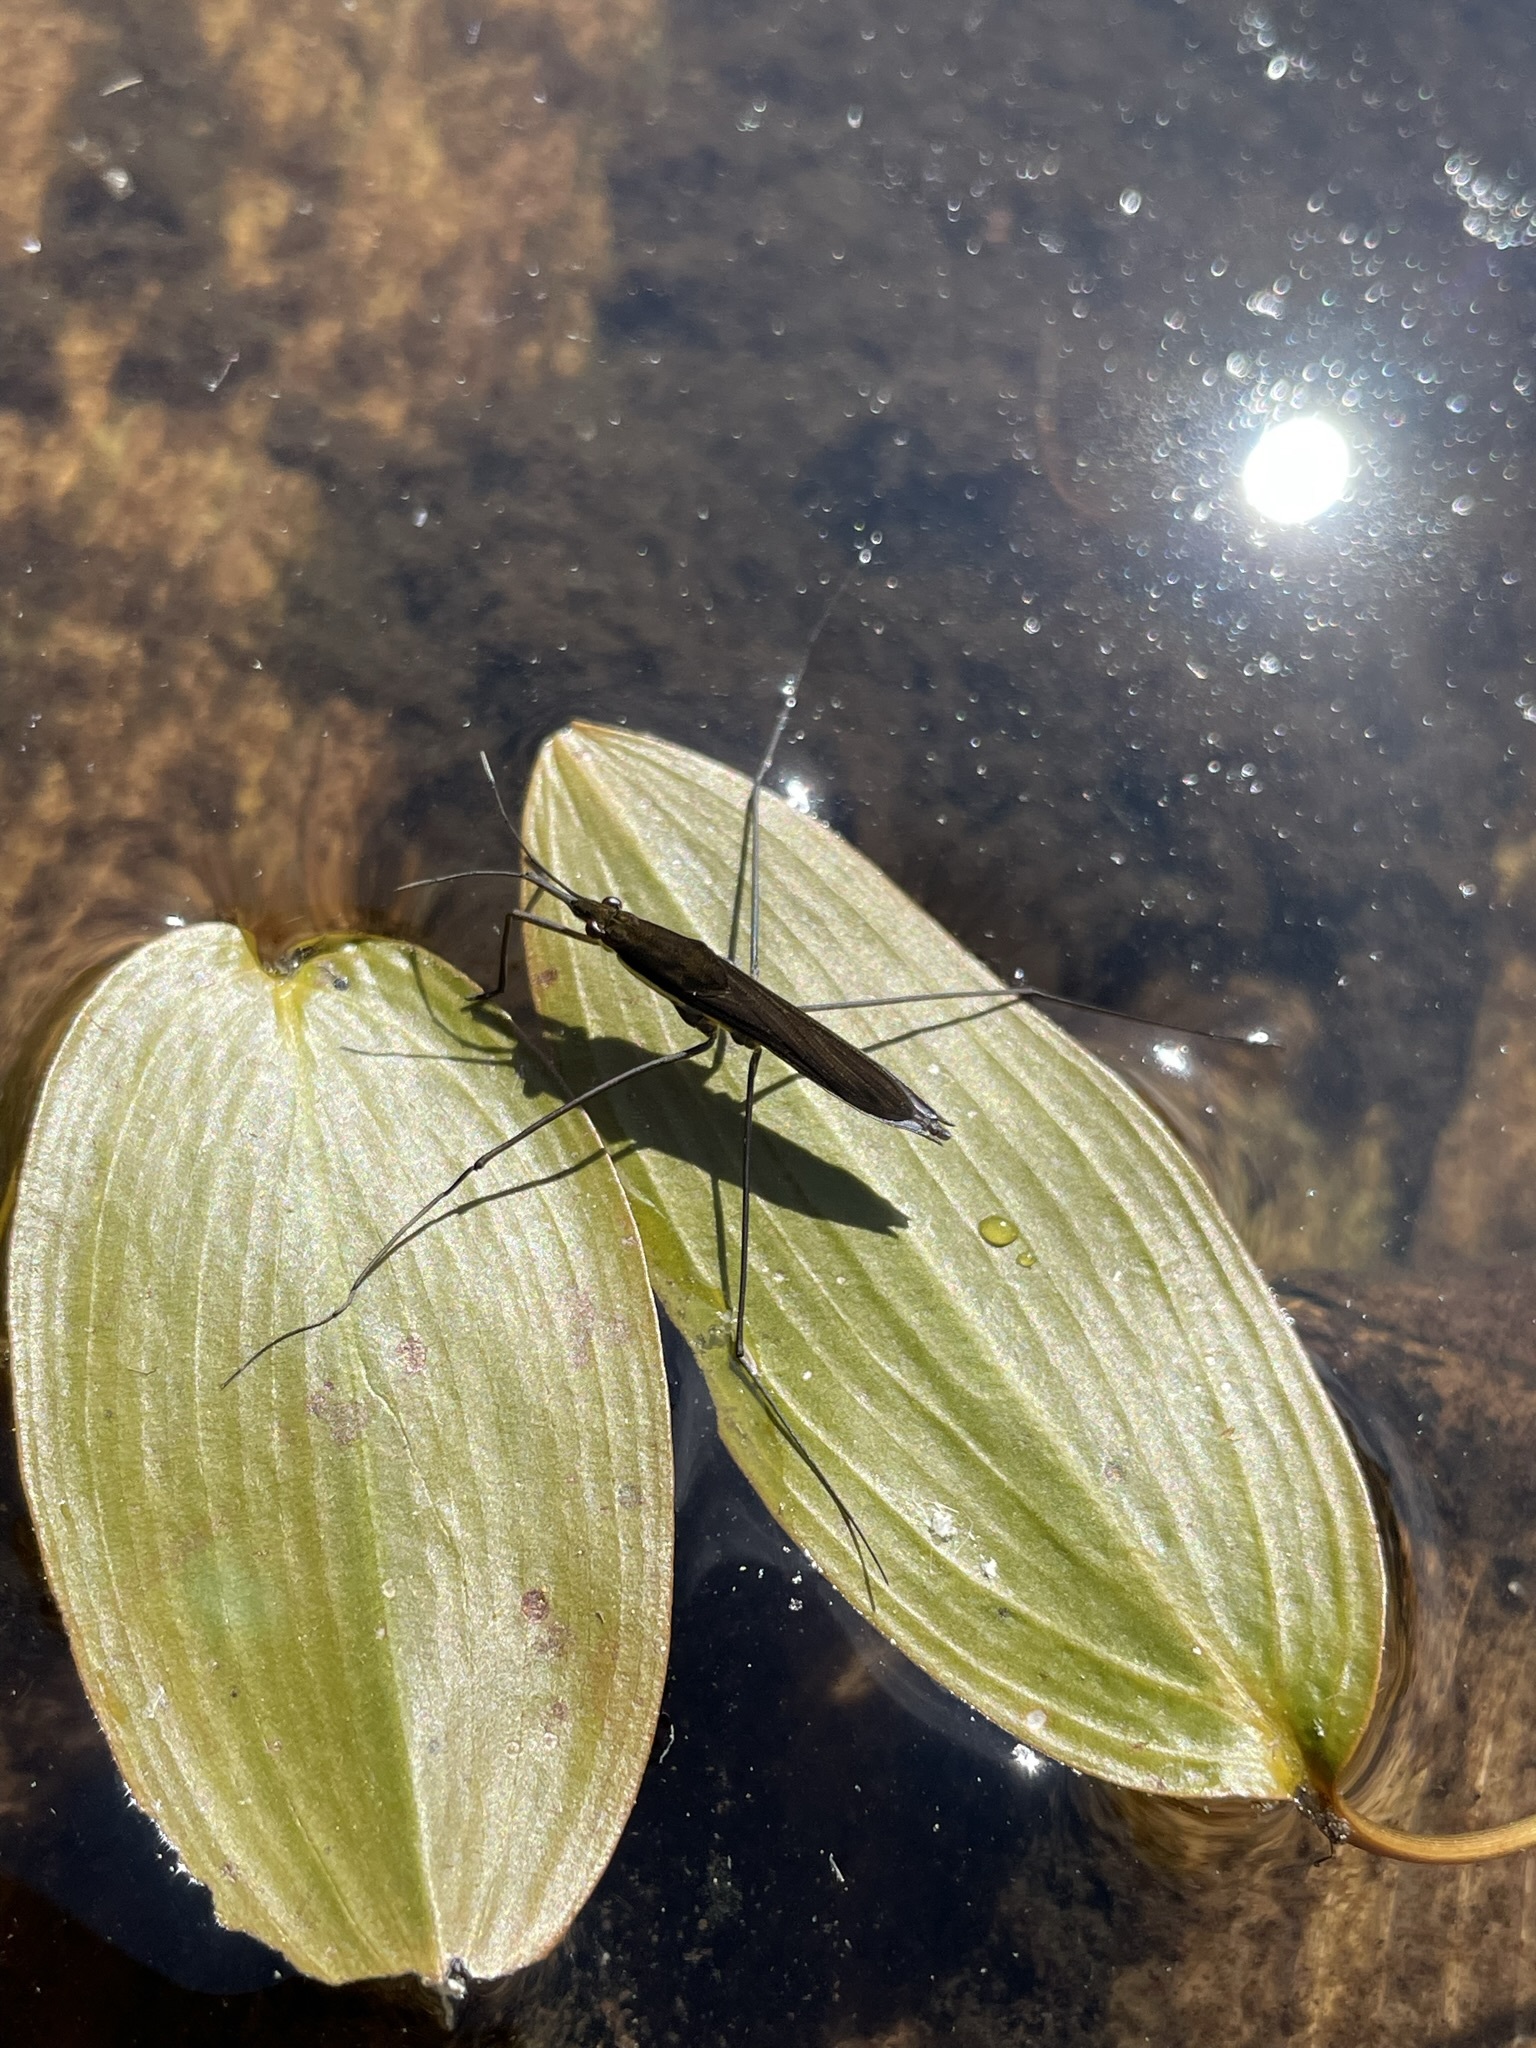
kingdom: Animalia
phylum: Arthropoda
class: Insecta
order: Hemiptera
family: Gerridae
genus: Limnoporus
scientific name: Limnoporus notabilis
